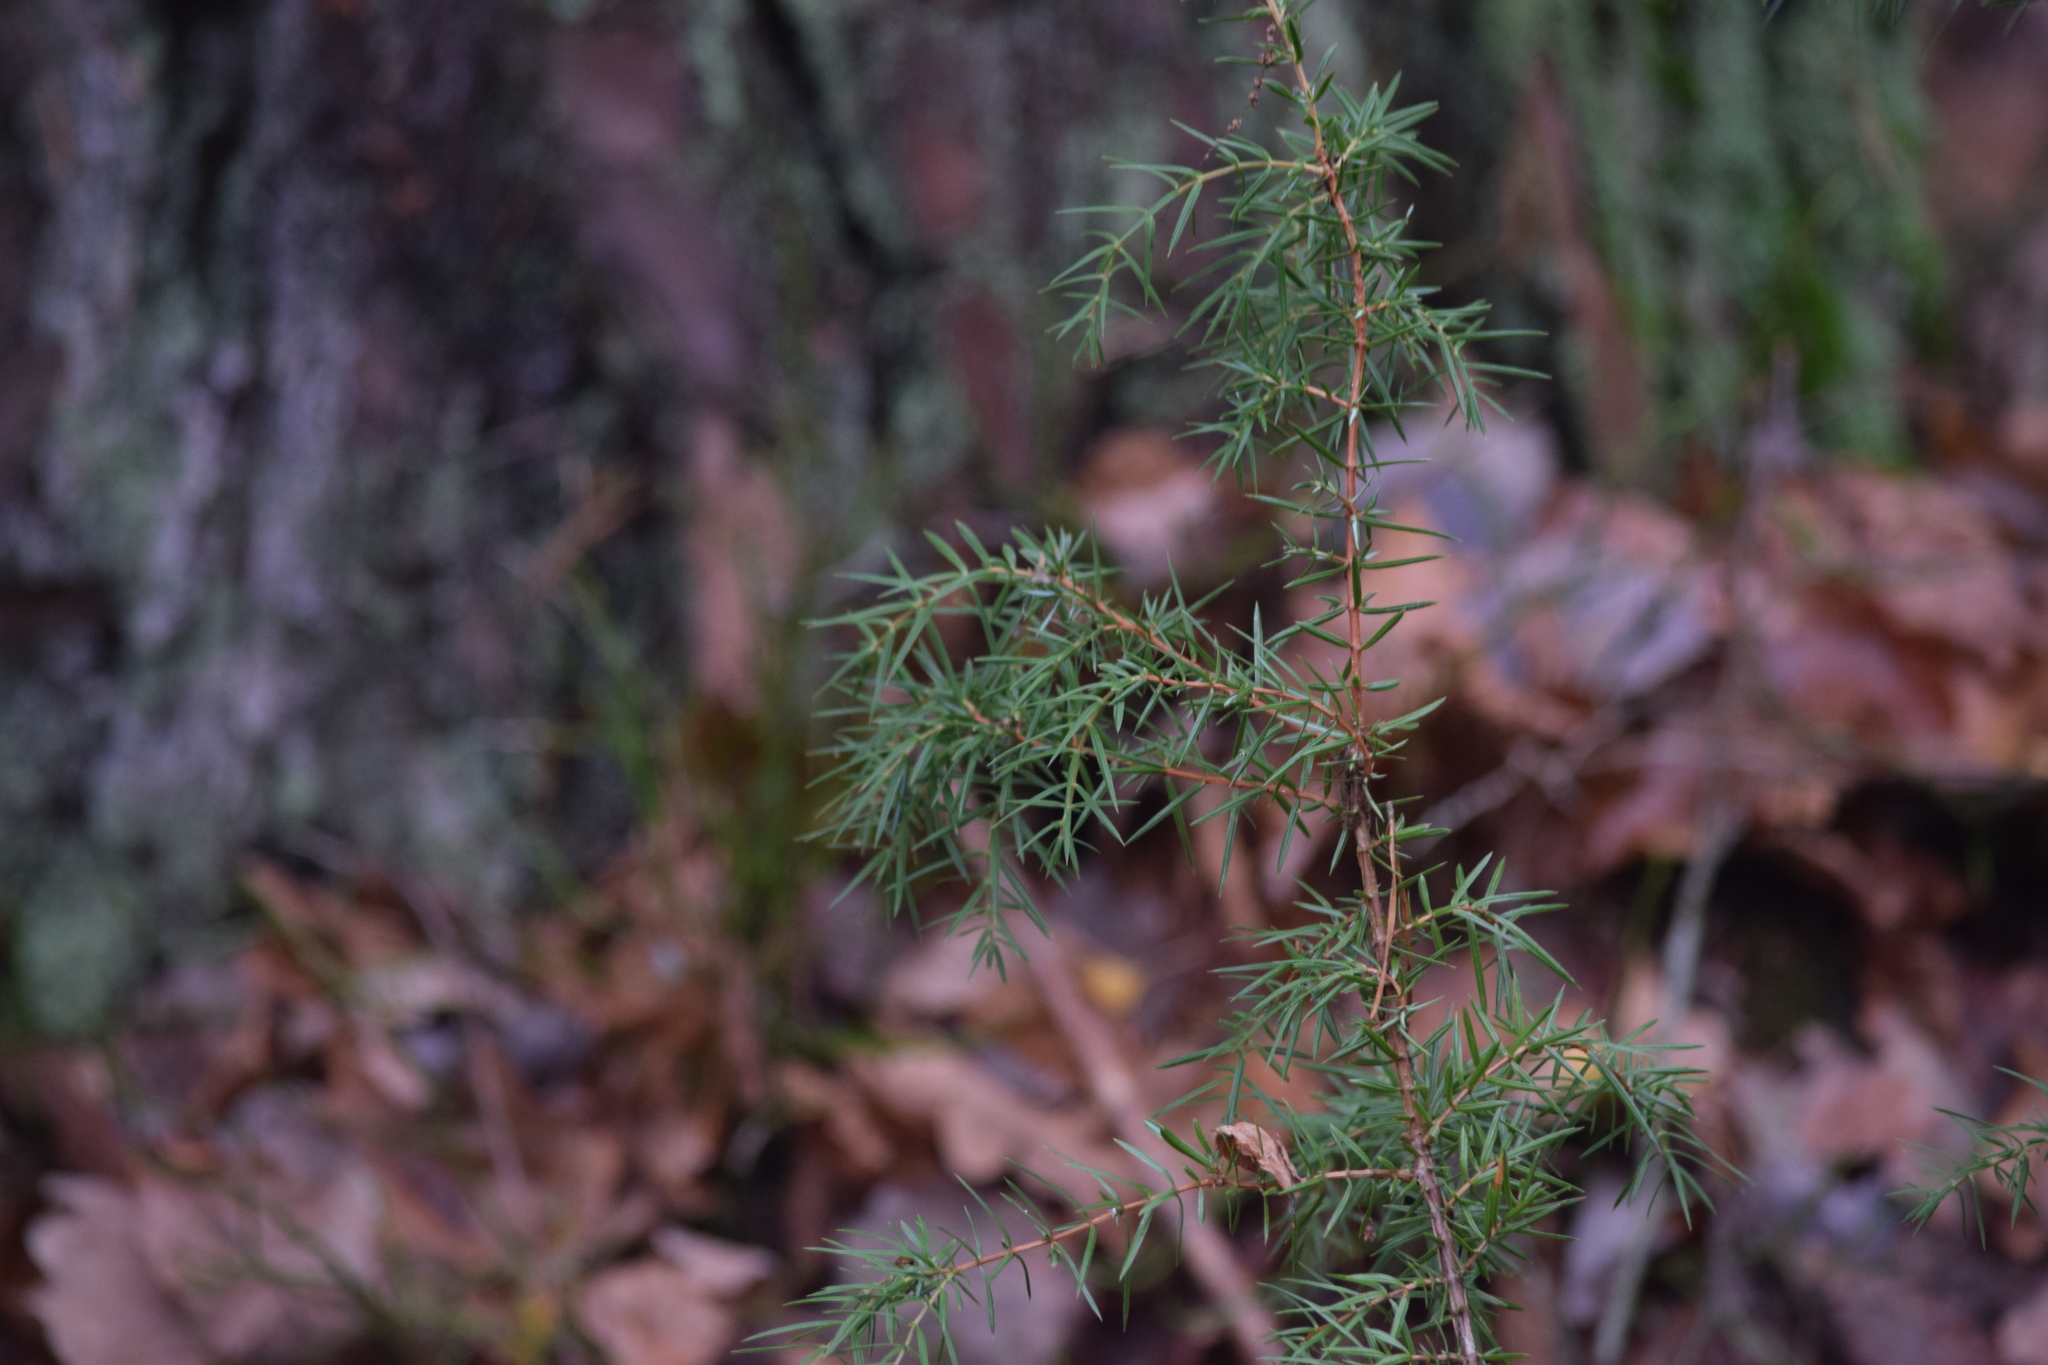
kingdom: Plantae
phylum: Tracheophyta
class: Pinopsida
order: Pinales
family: Cupressaceae
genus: Juniperus
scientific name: Juniperus communis
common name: Common juniper
